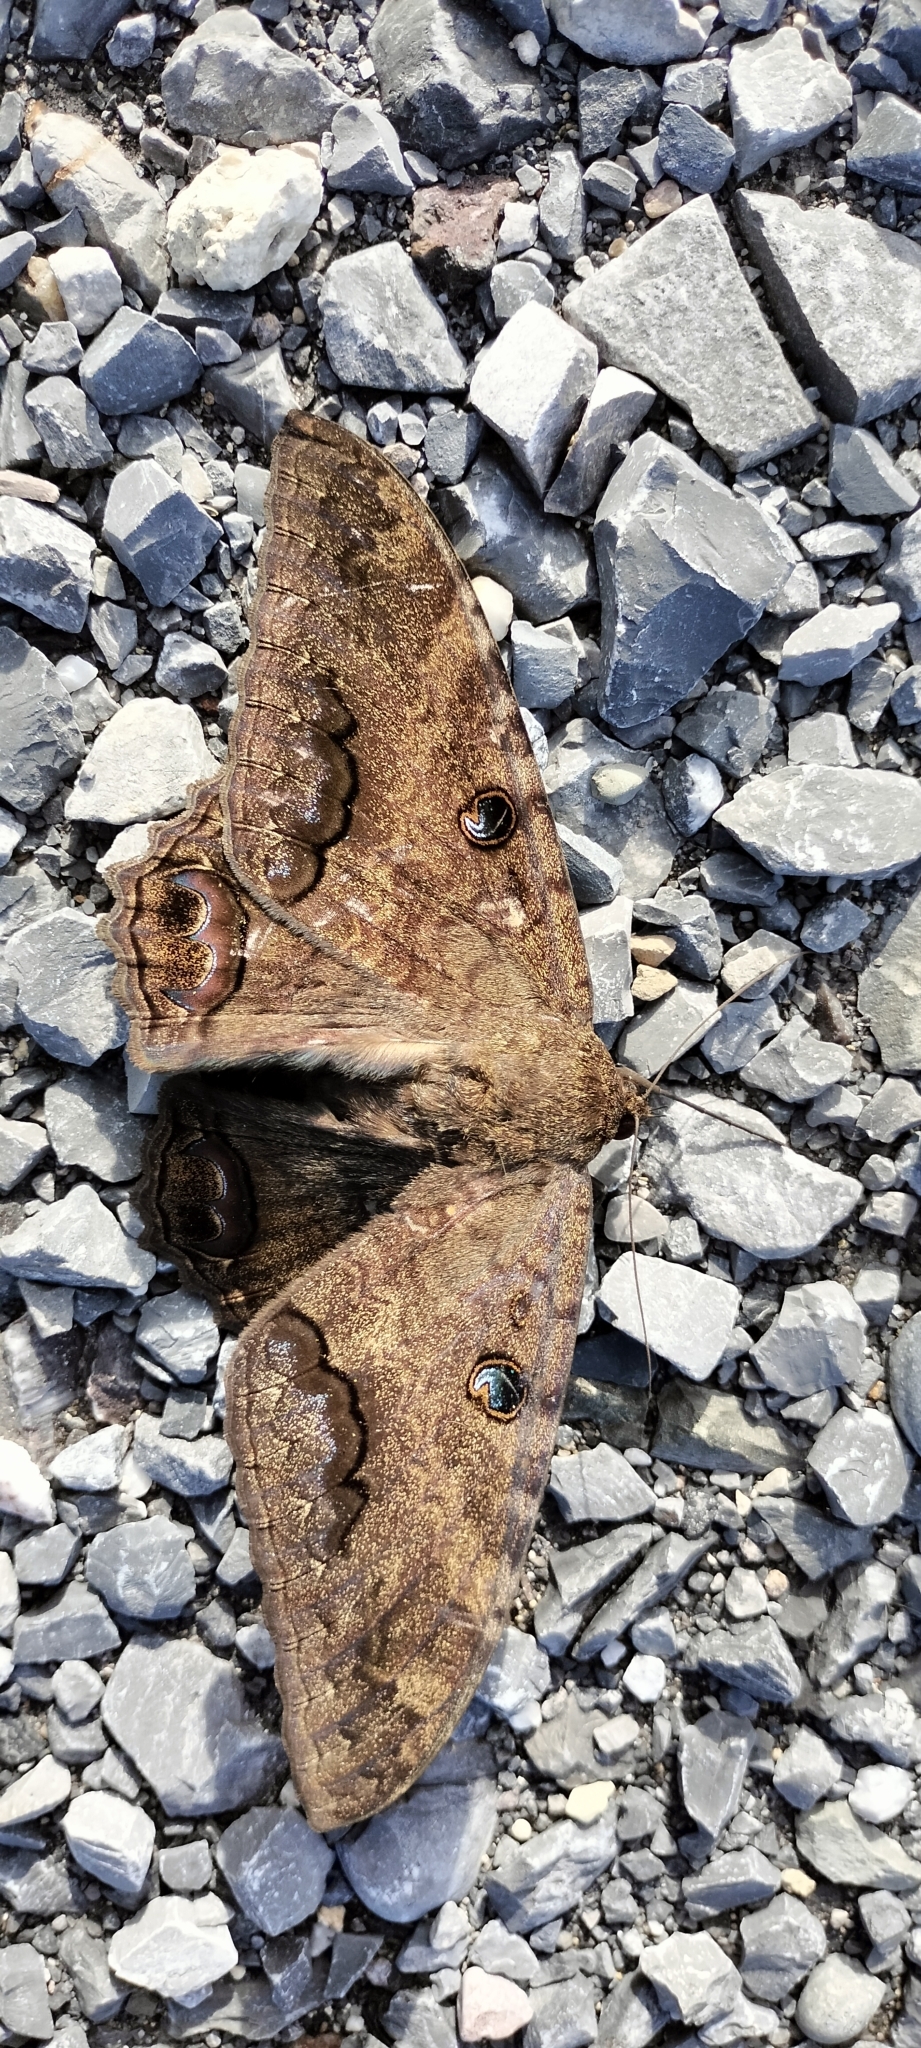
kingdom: Animalia
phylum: Arthropoda
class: Insecta
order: Lepidoptera
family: Erebidae
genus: Ascalapha
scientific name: Ascalapha odorata
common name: Black witch
